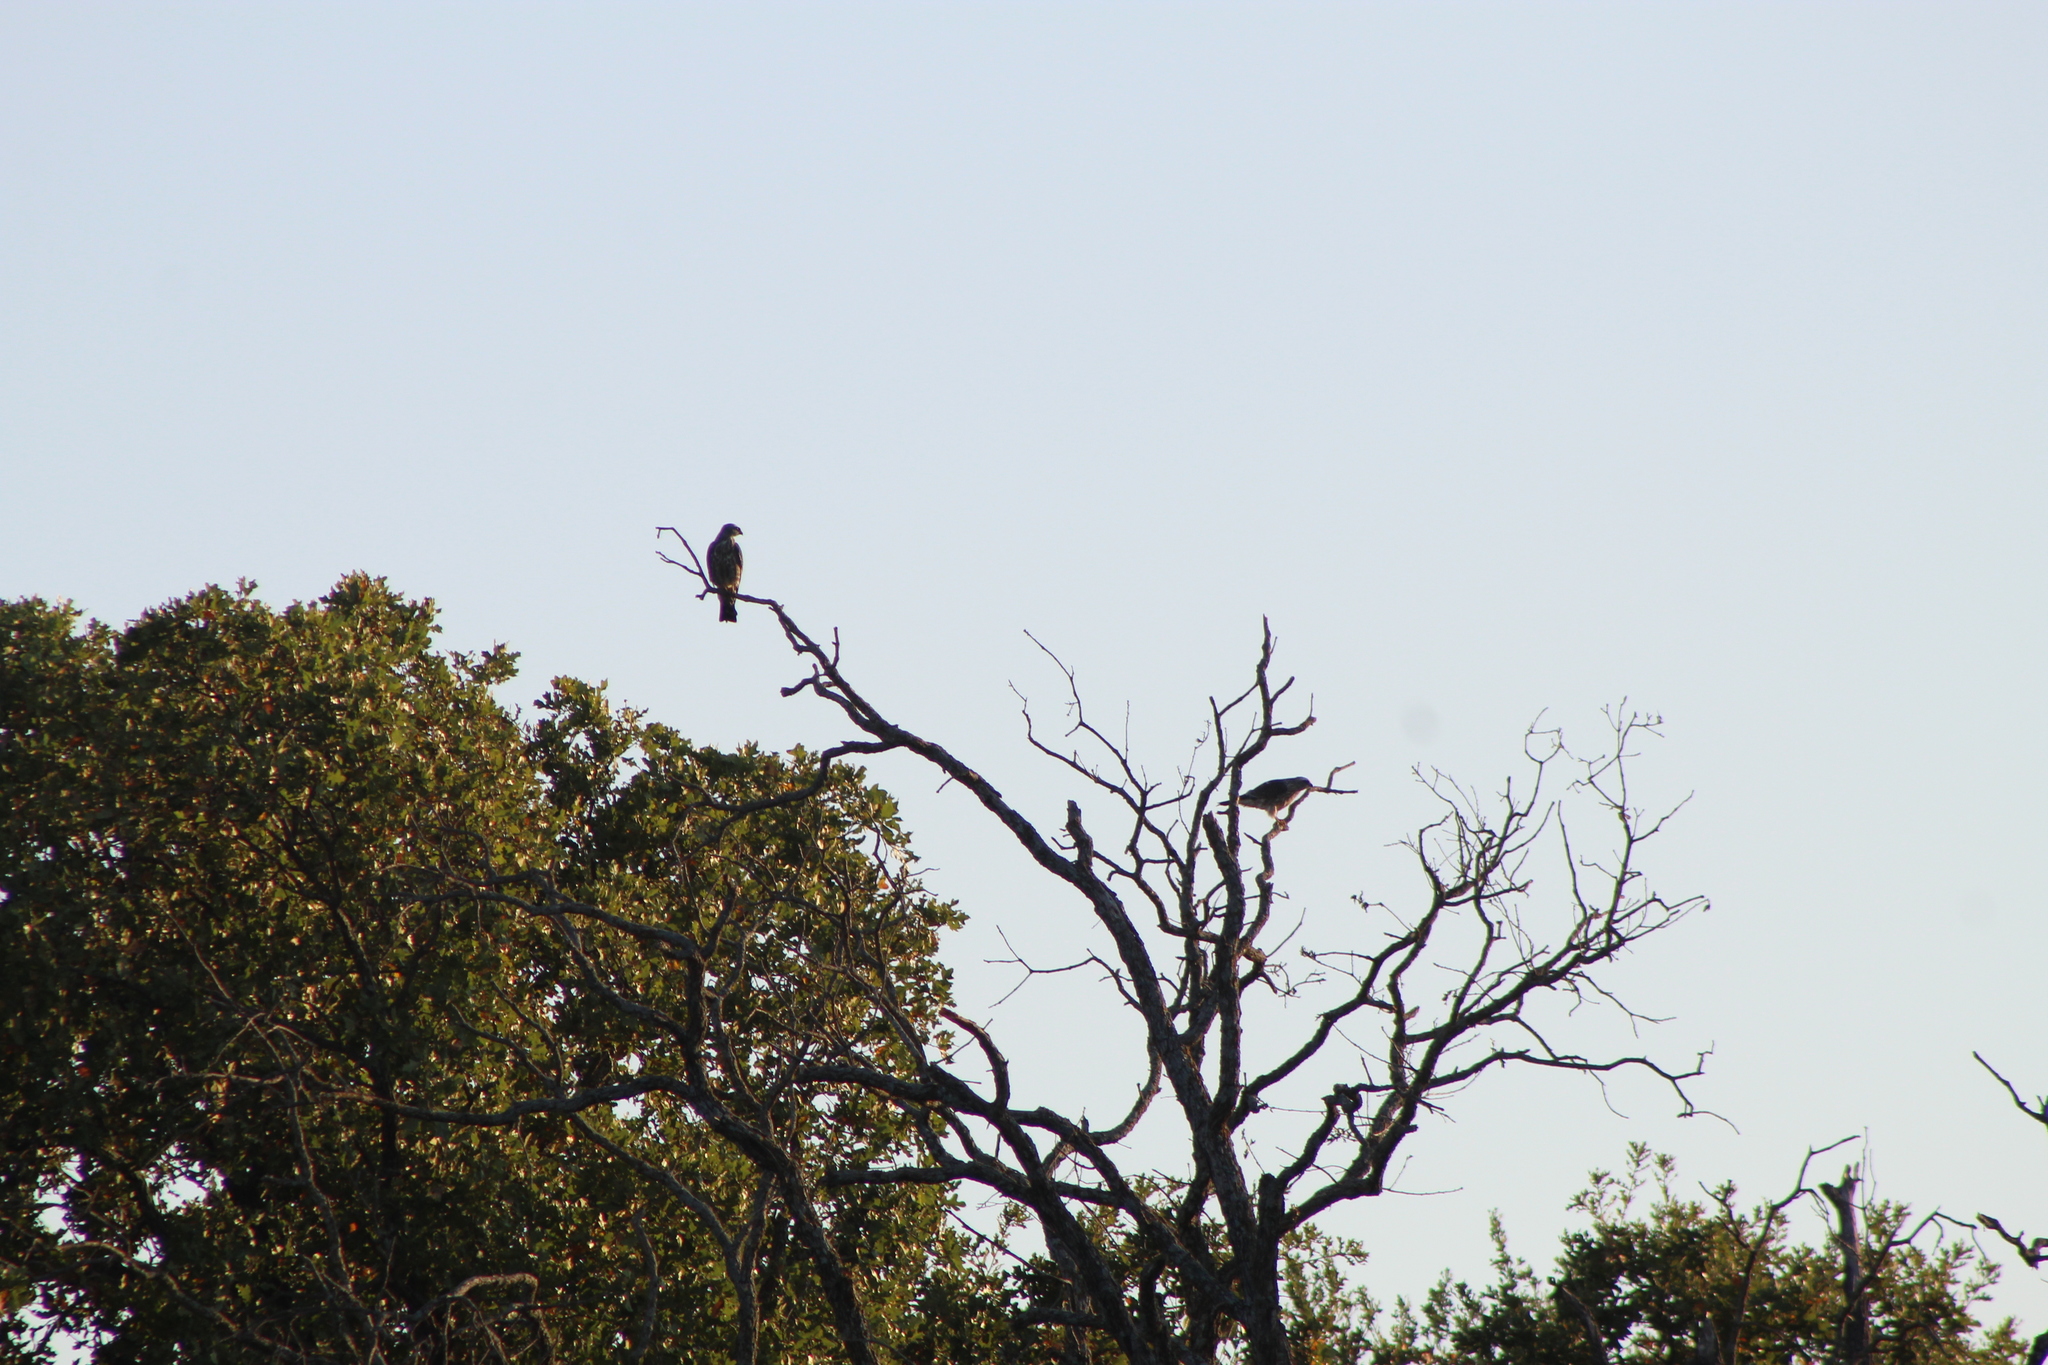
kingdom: Animalia
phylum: Chordata
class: Aves
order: Accipitriformes
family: Accipitridae
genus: Ictinia
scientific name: Ictinia mississippiensis
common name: Mississippi kite
